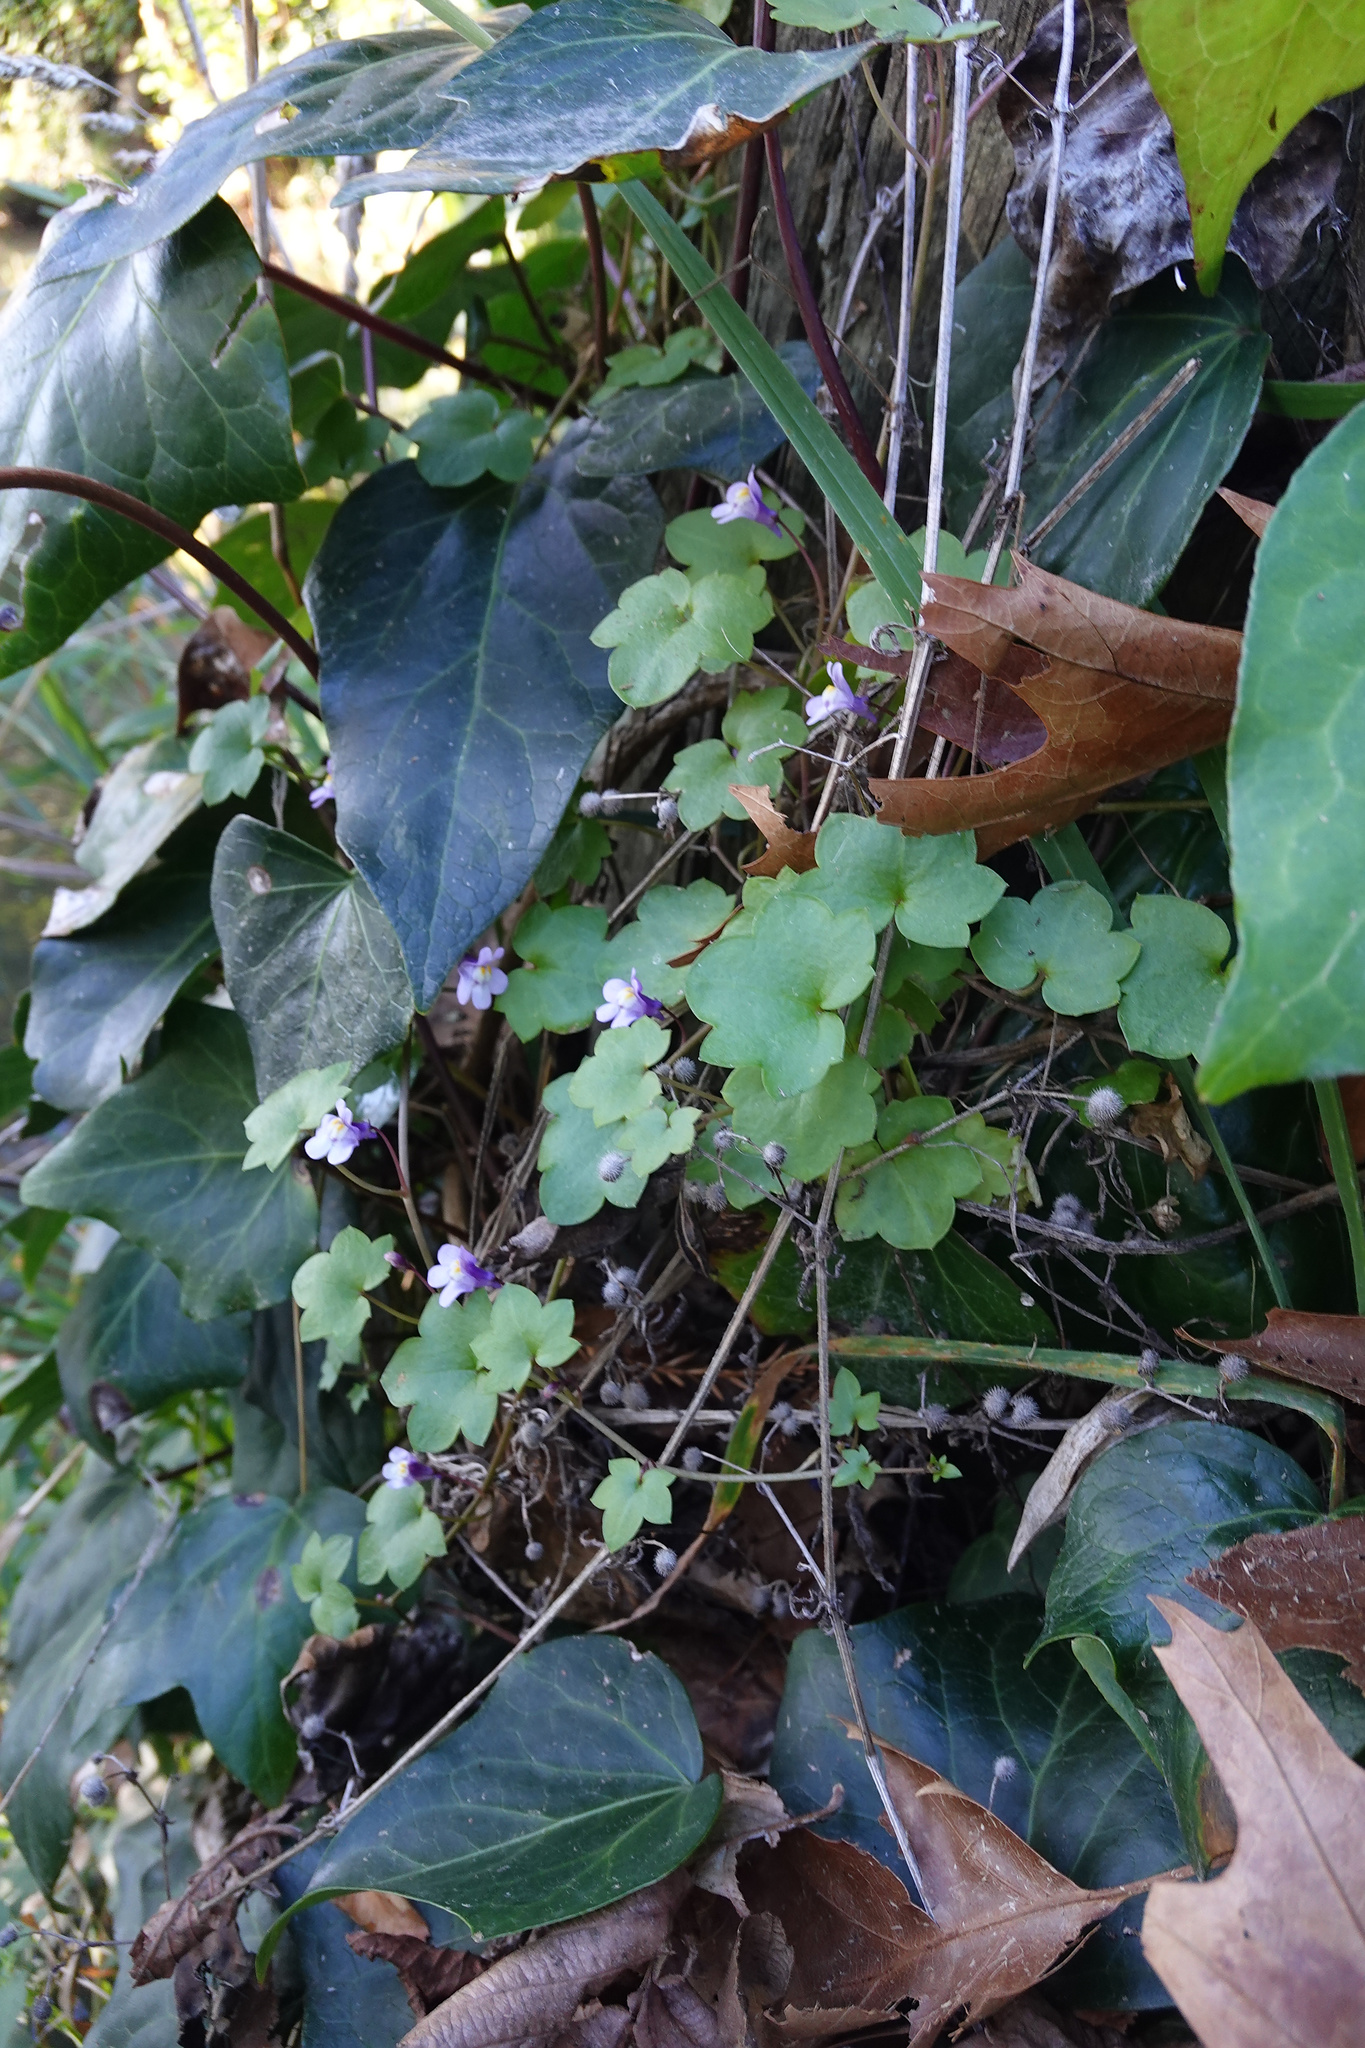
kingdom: Plantae
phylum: Tracheophyta
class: Magnoliopsida
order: Lamiales
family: Plantaginaceae
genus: Cymbalaria
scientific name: Cymbalaria muralis
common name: Ivy-leaved toadflax
